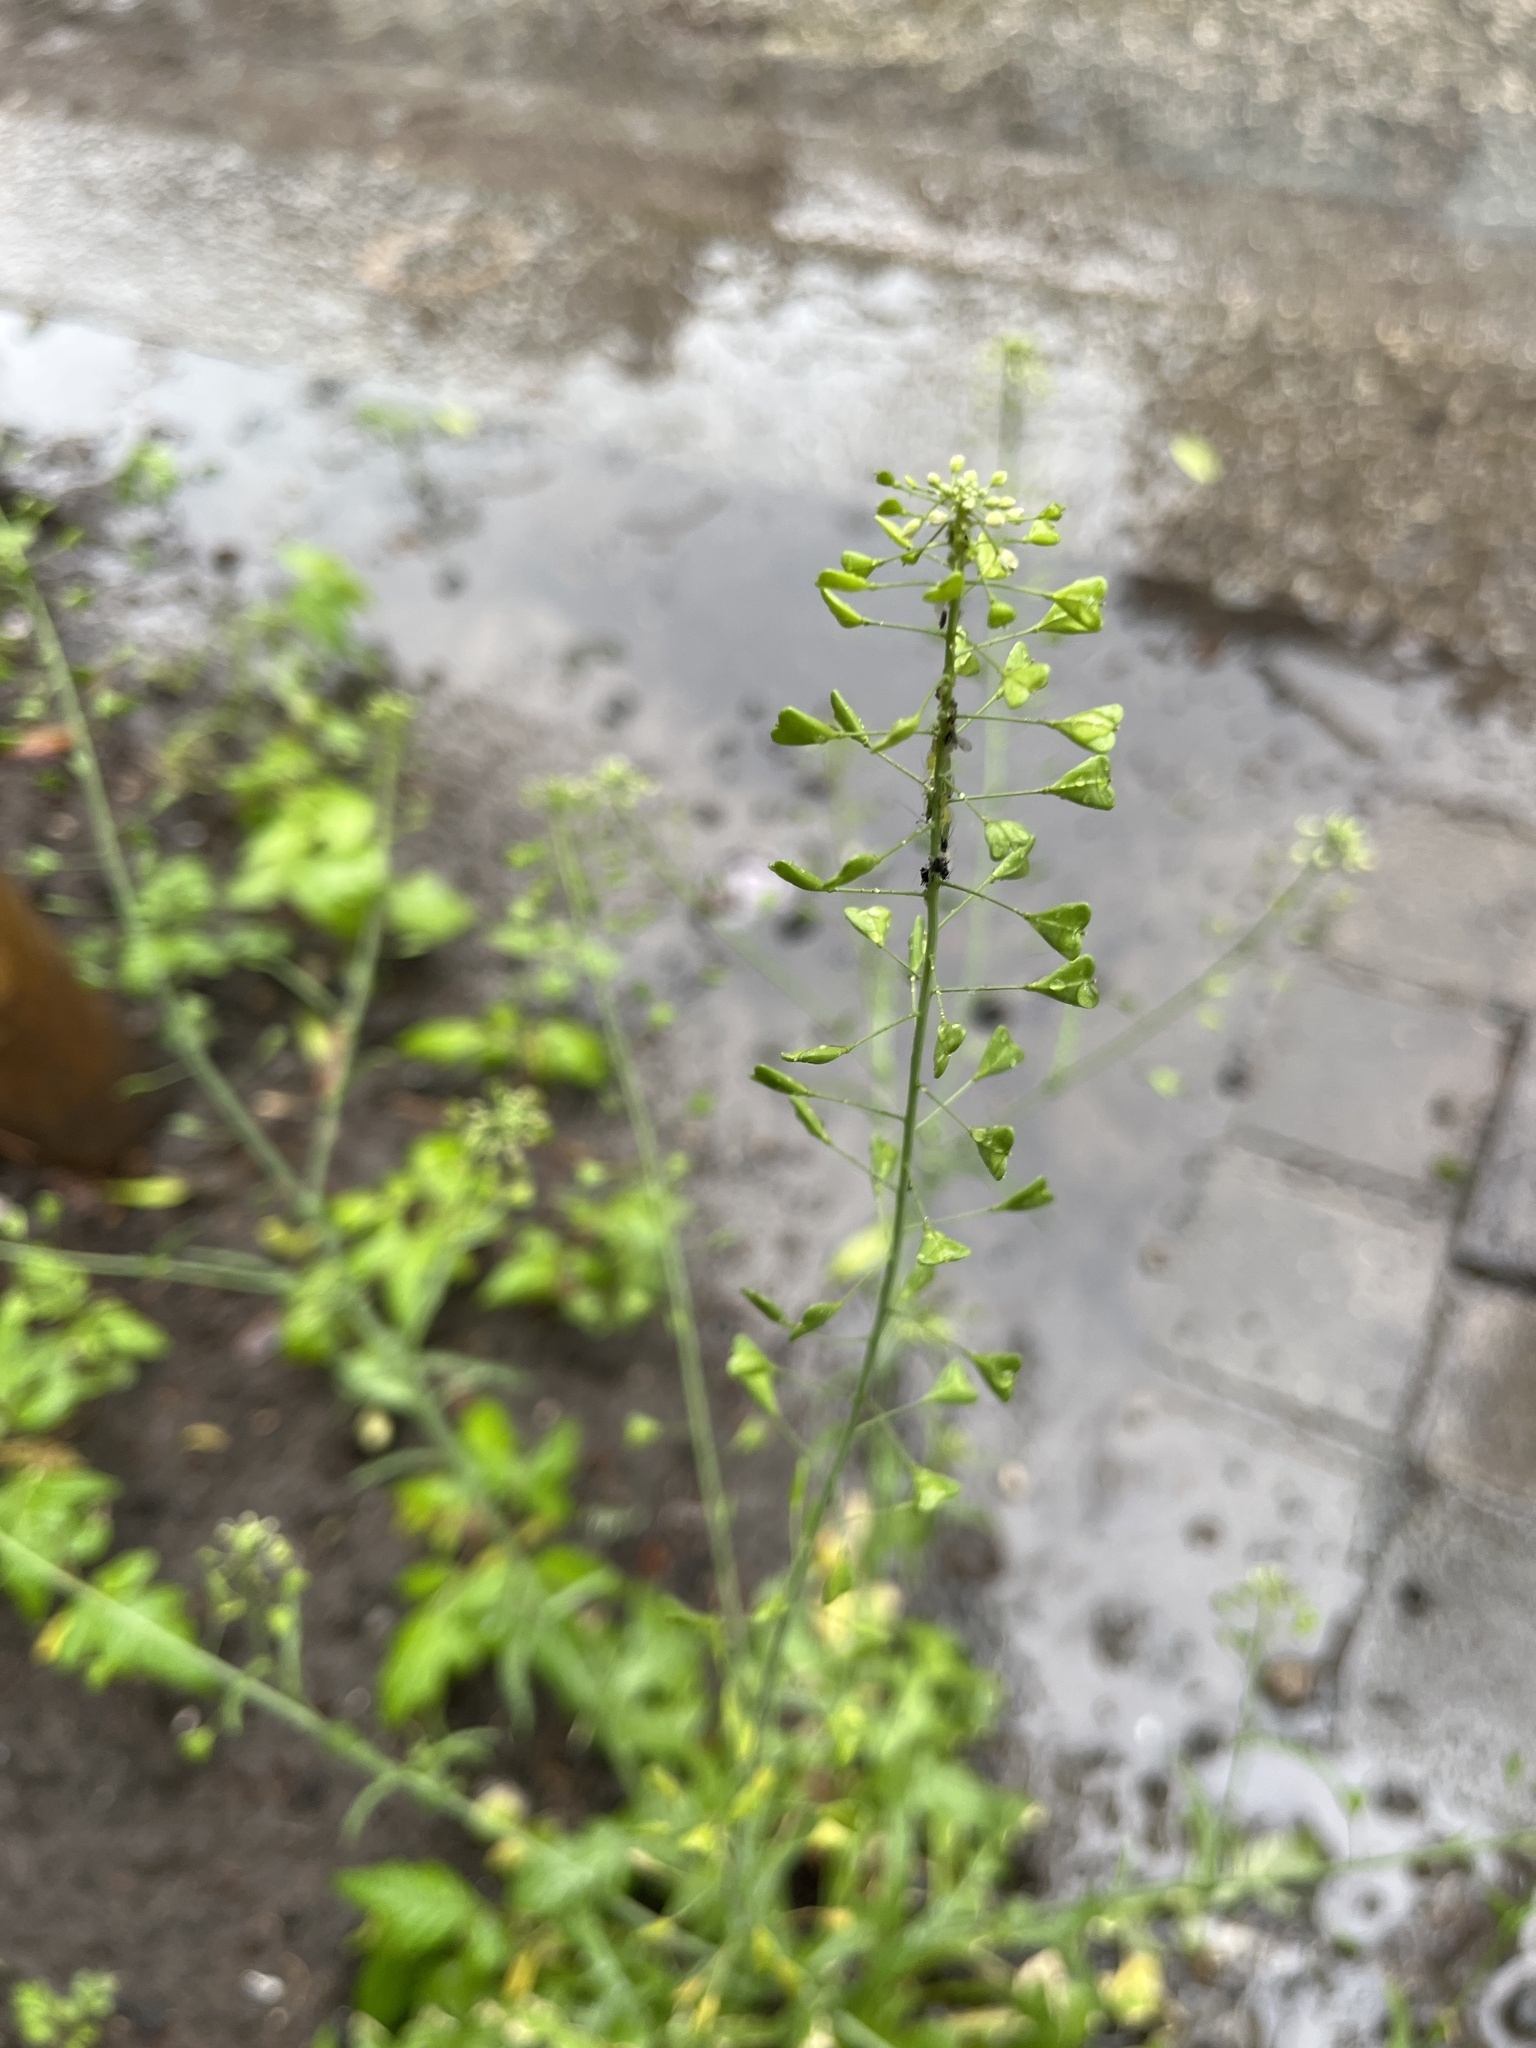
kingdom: Plantae
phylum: Tracheophyta
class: Magnoliopsida
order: Brassicales
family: Brassicaceae
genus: Capsella
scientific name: Capsella bursa-pastoris
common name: Shepherd's purse
